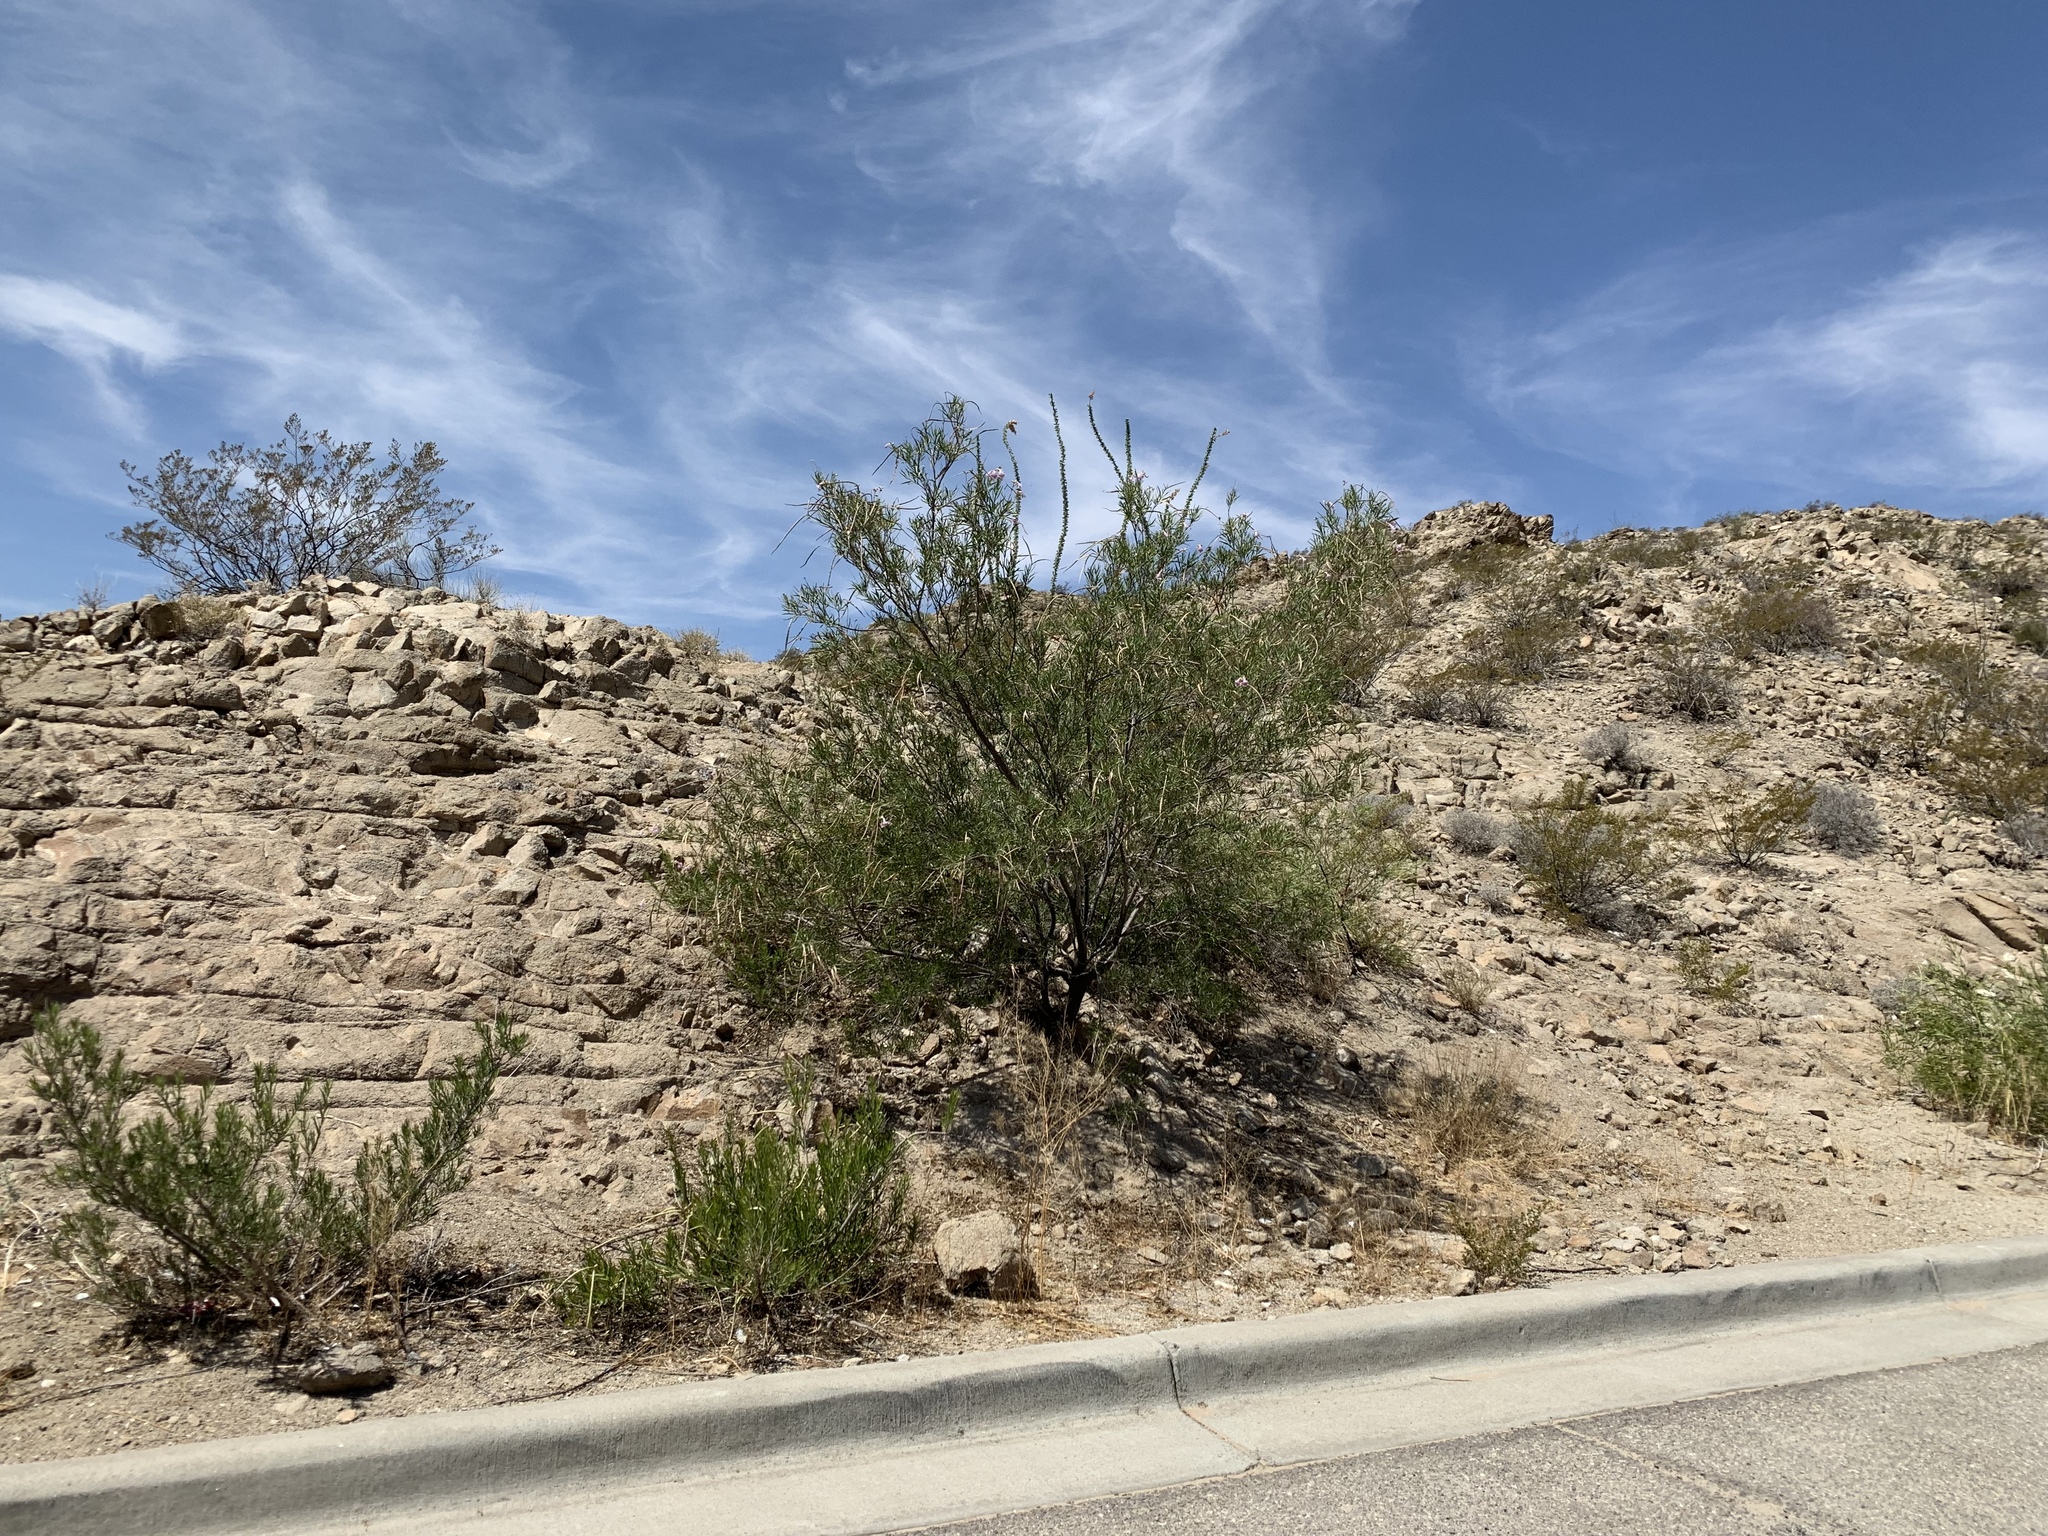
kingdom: Plantae
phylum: Tracheophyta
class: Magnoliopsida
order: Lamiales
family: Bignoniaceae
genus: Chilopsis
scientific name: Chilopsis linearis
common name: Desert-willow
